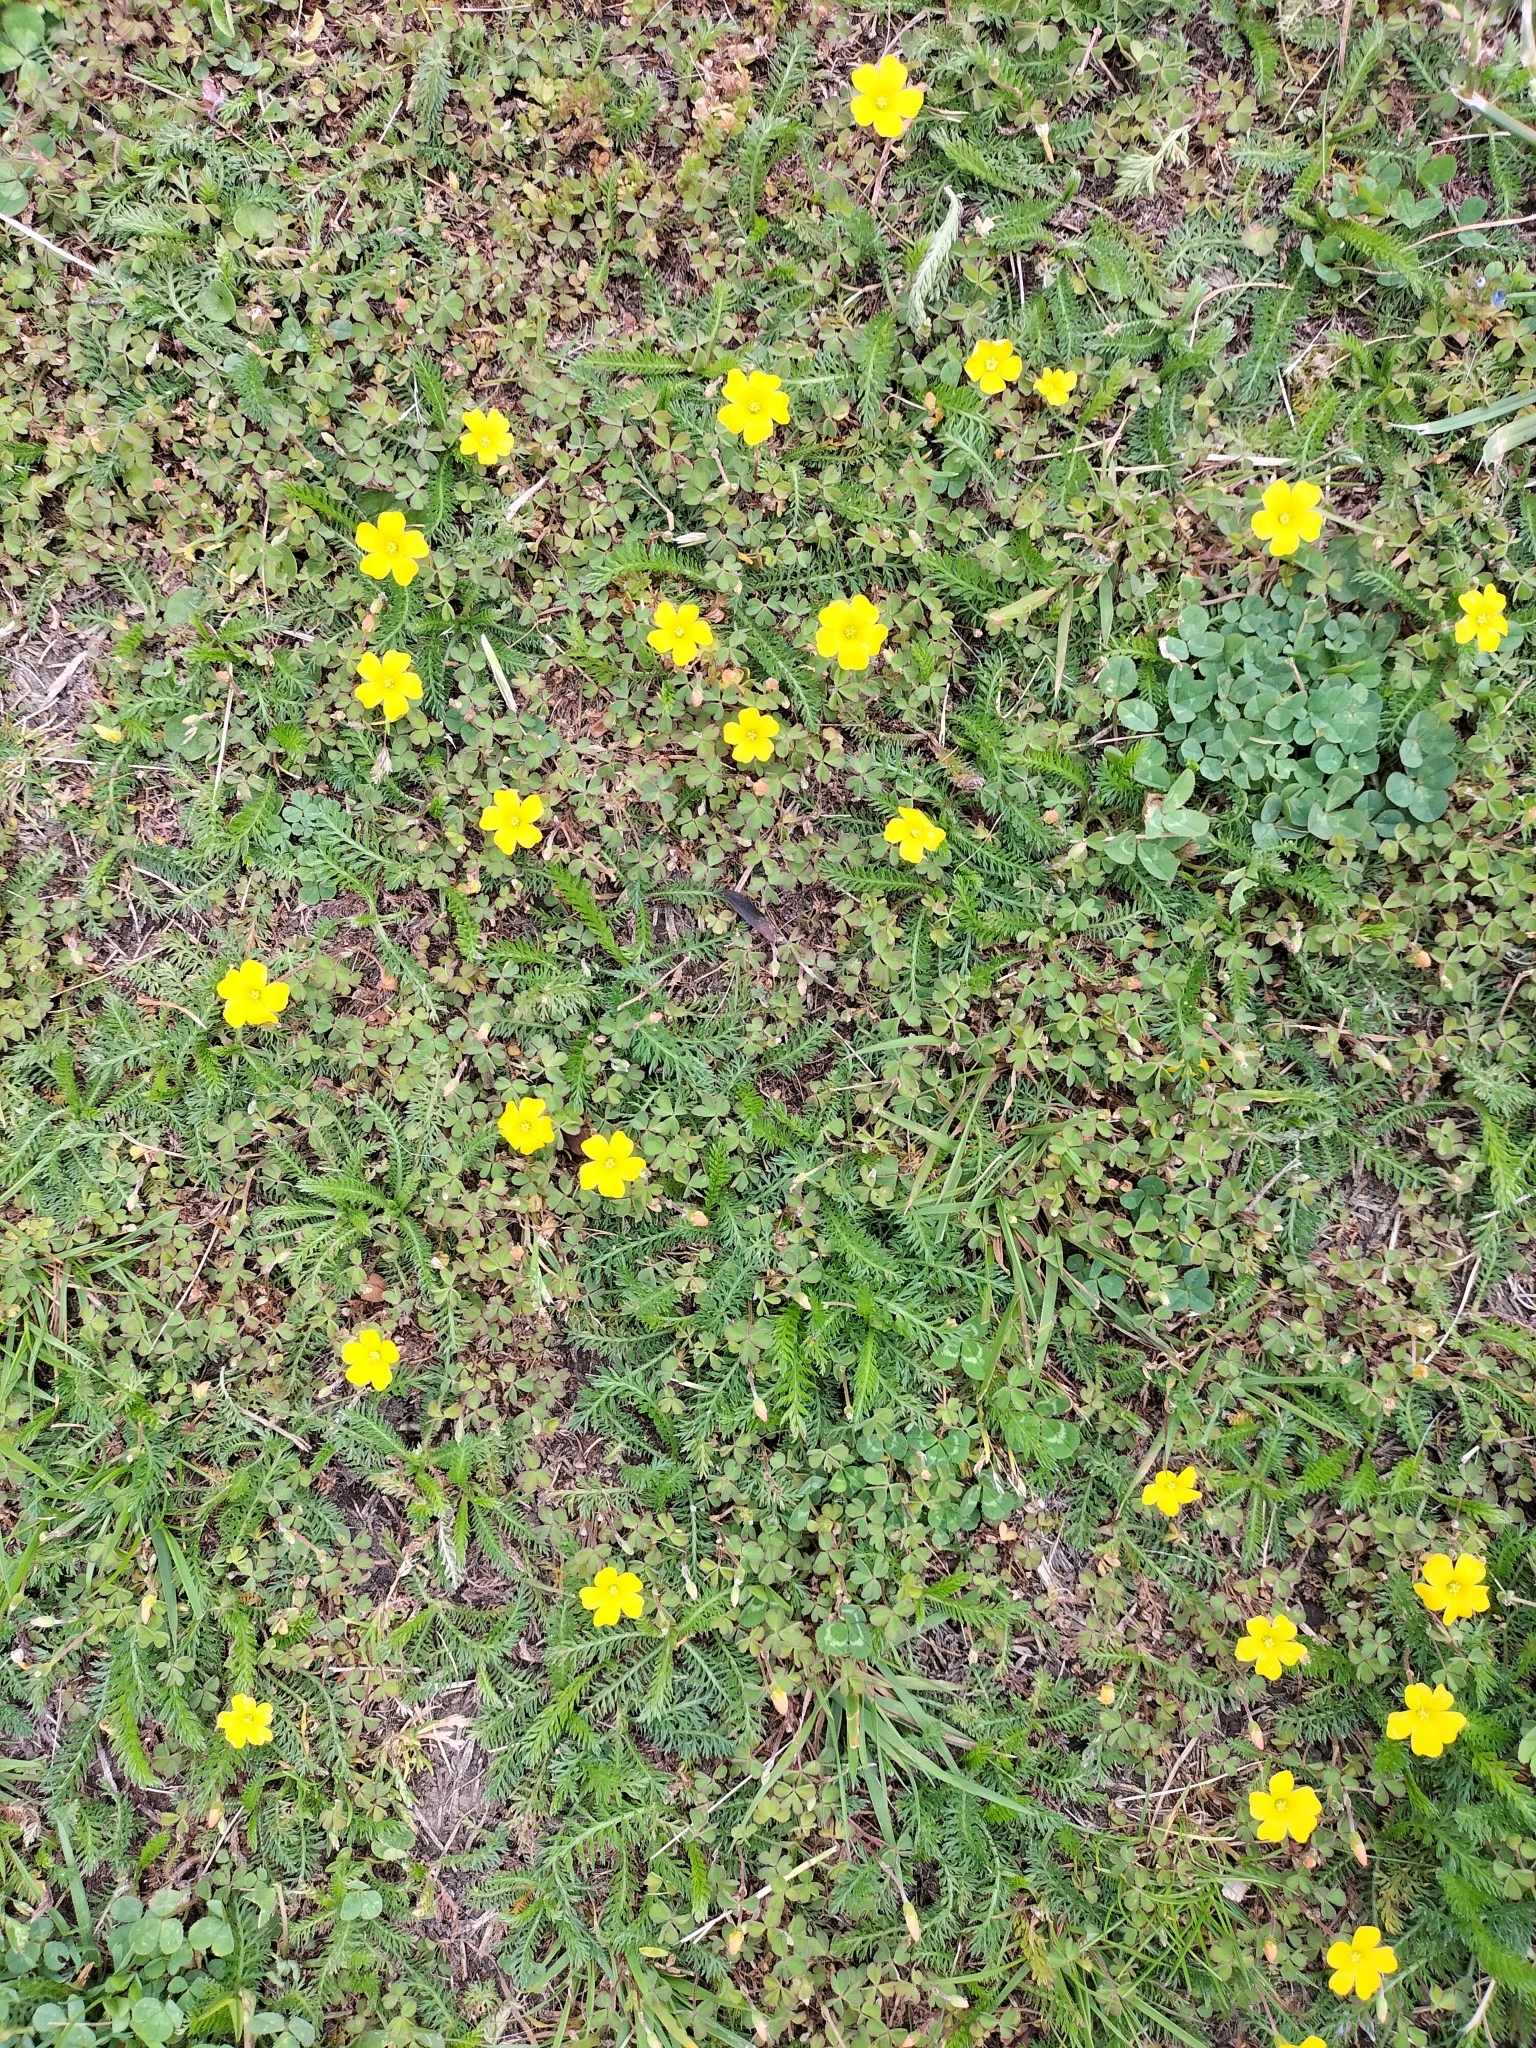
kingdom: Plantae
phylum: Tracheophyta
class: Magnoliopsida
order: Oxalidales
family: Oxalidaceae
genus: Oxalis
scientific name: Oxalis exilis
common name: Least yellow-sorrel
